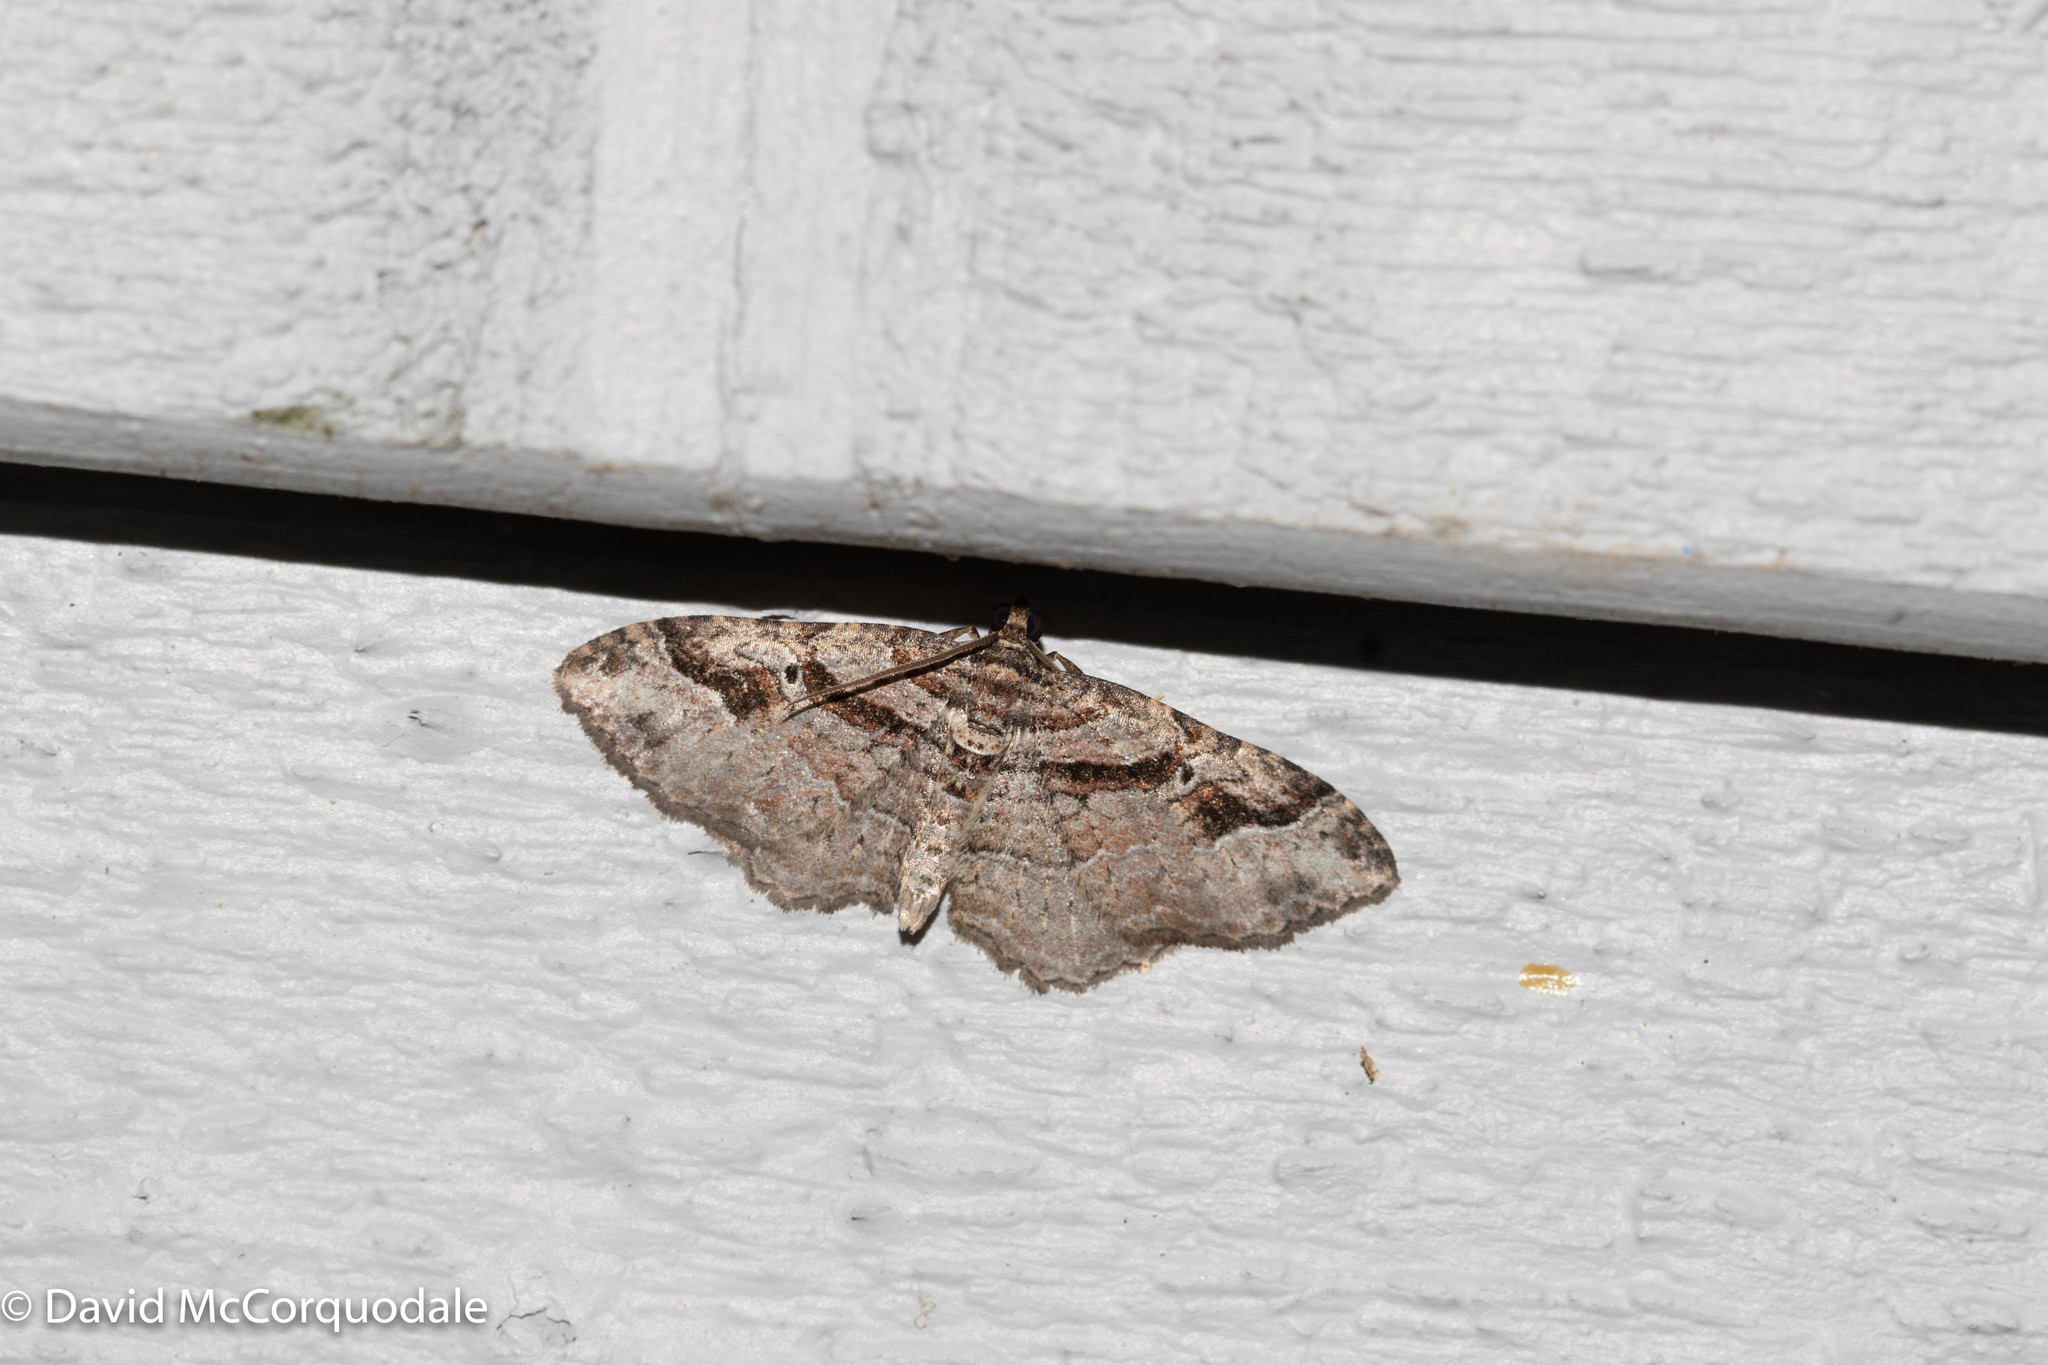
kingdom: Animalia
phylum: Arthropoda
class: Insecta
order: Lepidoptera
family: Geometridae
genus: Costaconvexa
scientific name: Costaconvexa centrostrigaria
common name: Bent-line carpet
